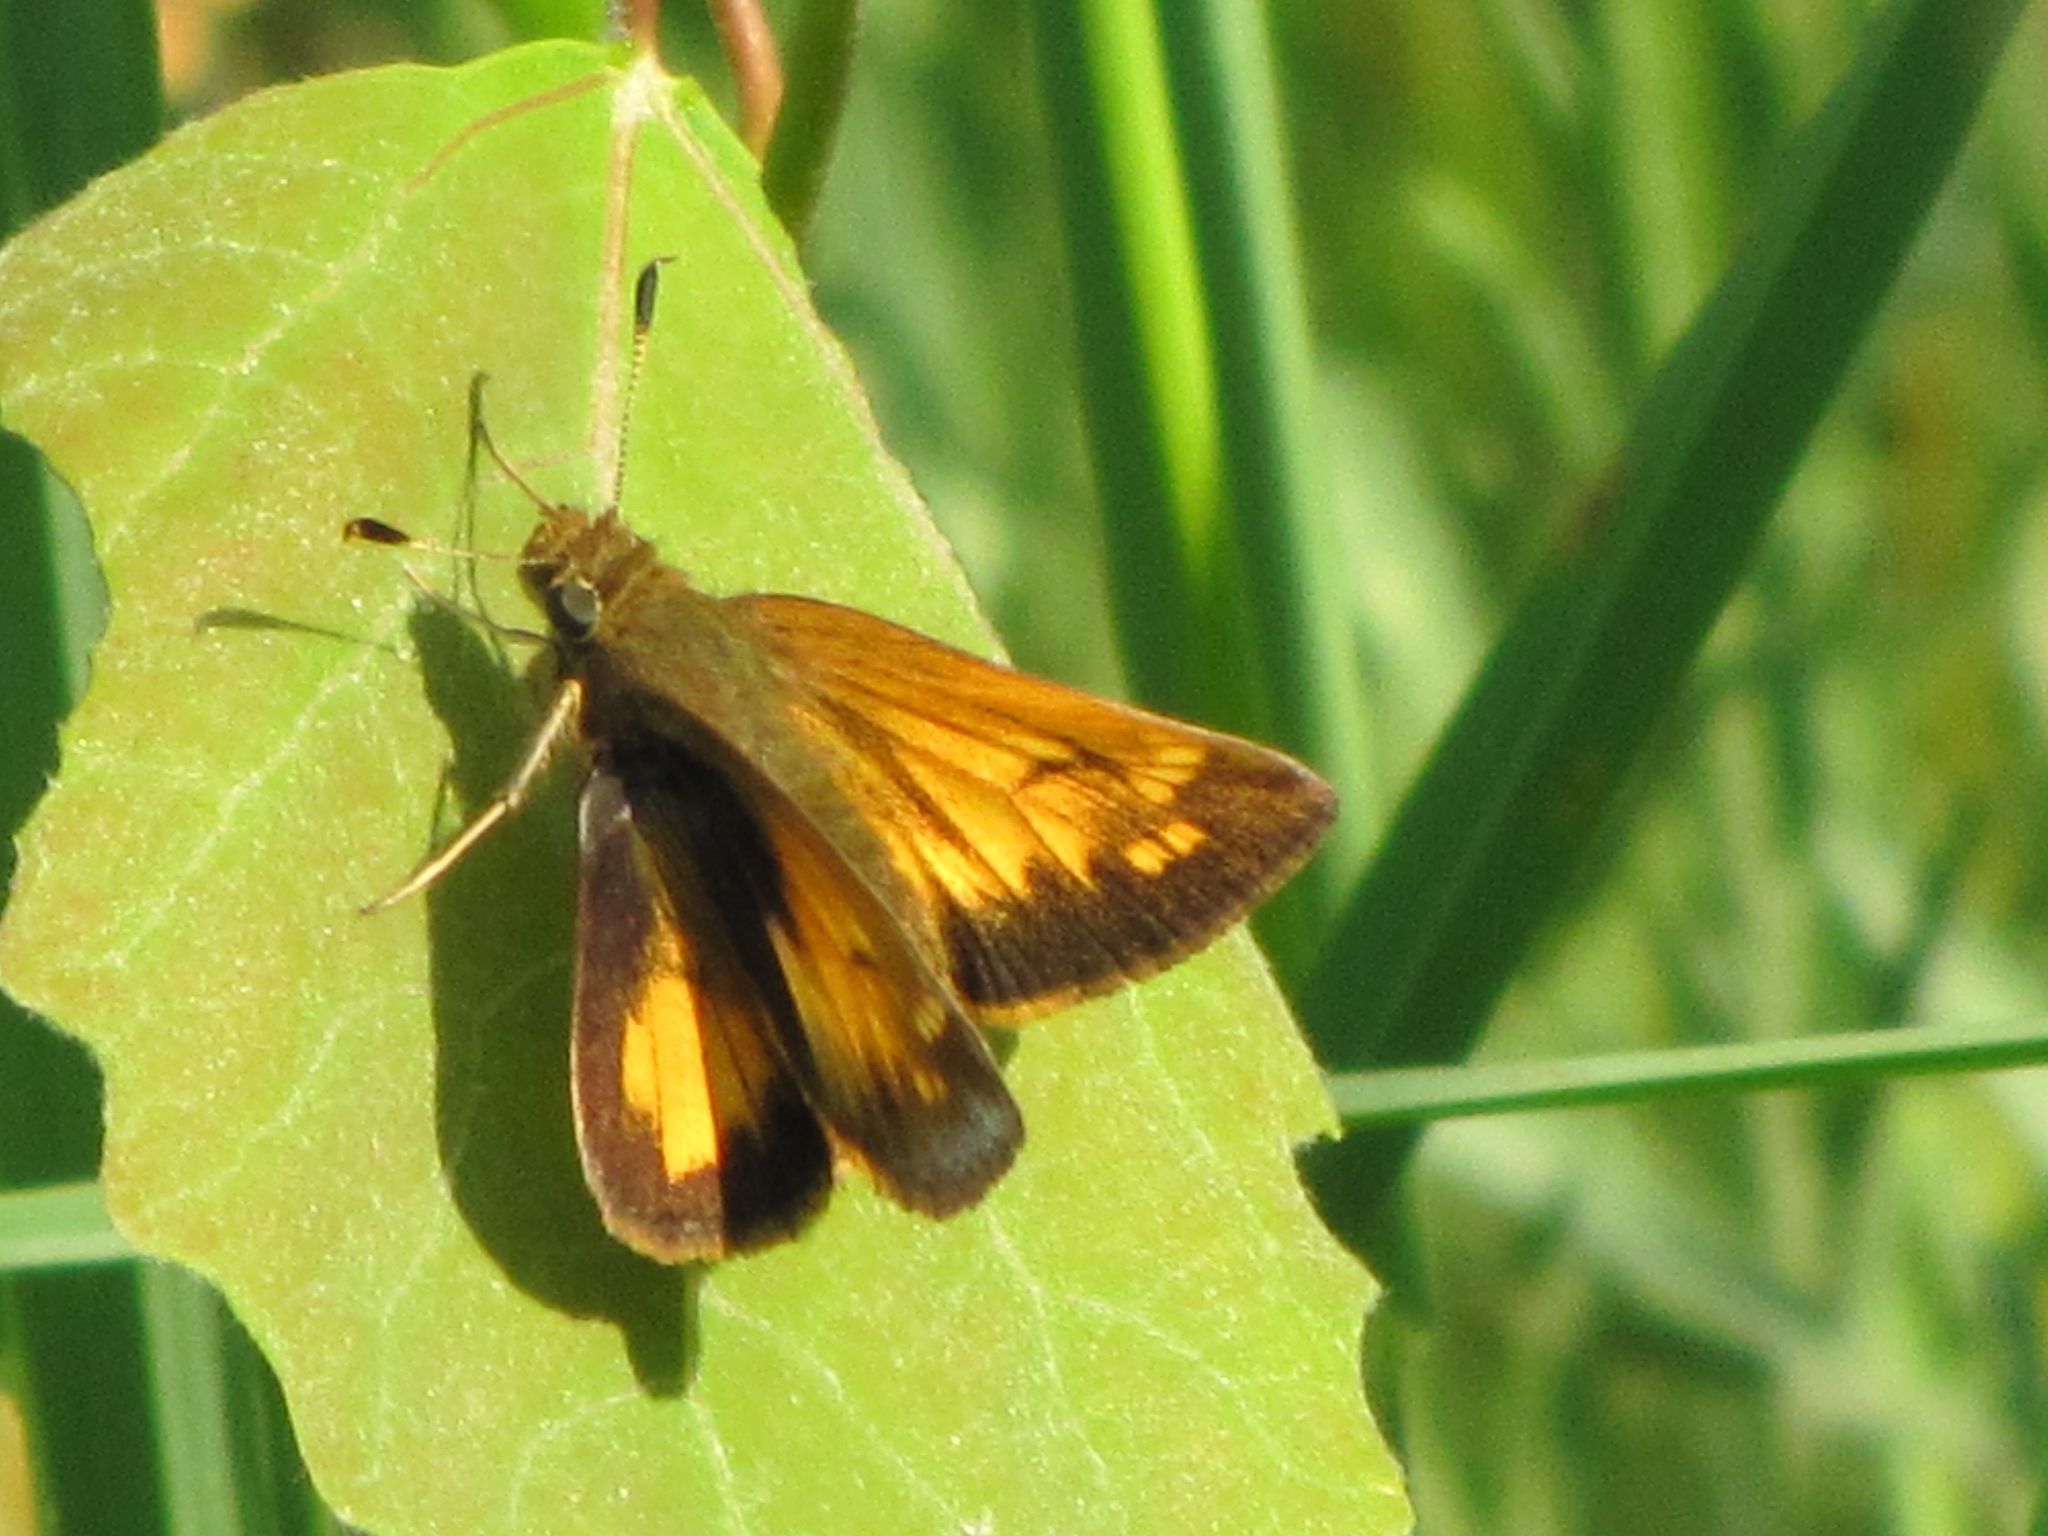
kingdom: Animalia
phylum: Arthropoda
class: Insecta
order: Lepidoptera
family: Hesperiidae
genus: Lon
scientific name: Lon hobomok
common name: Hobomok skipper
